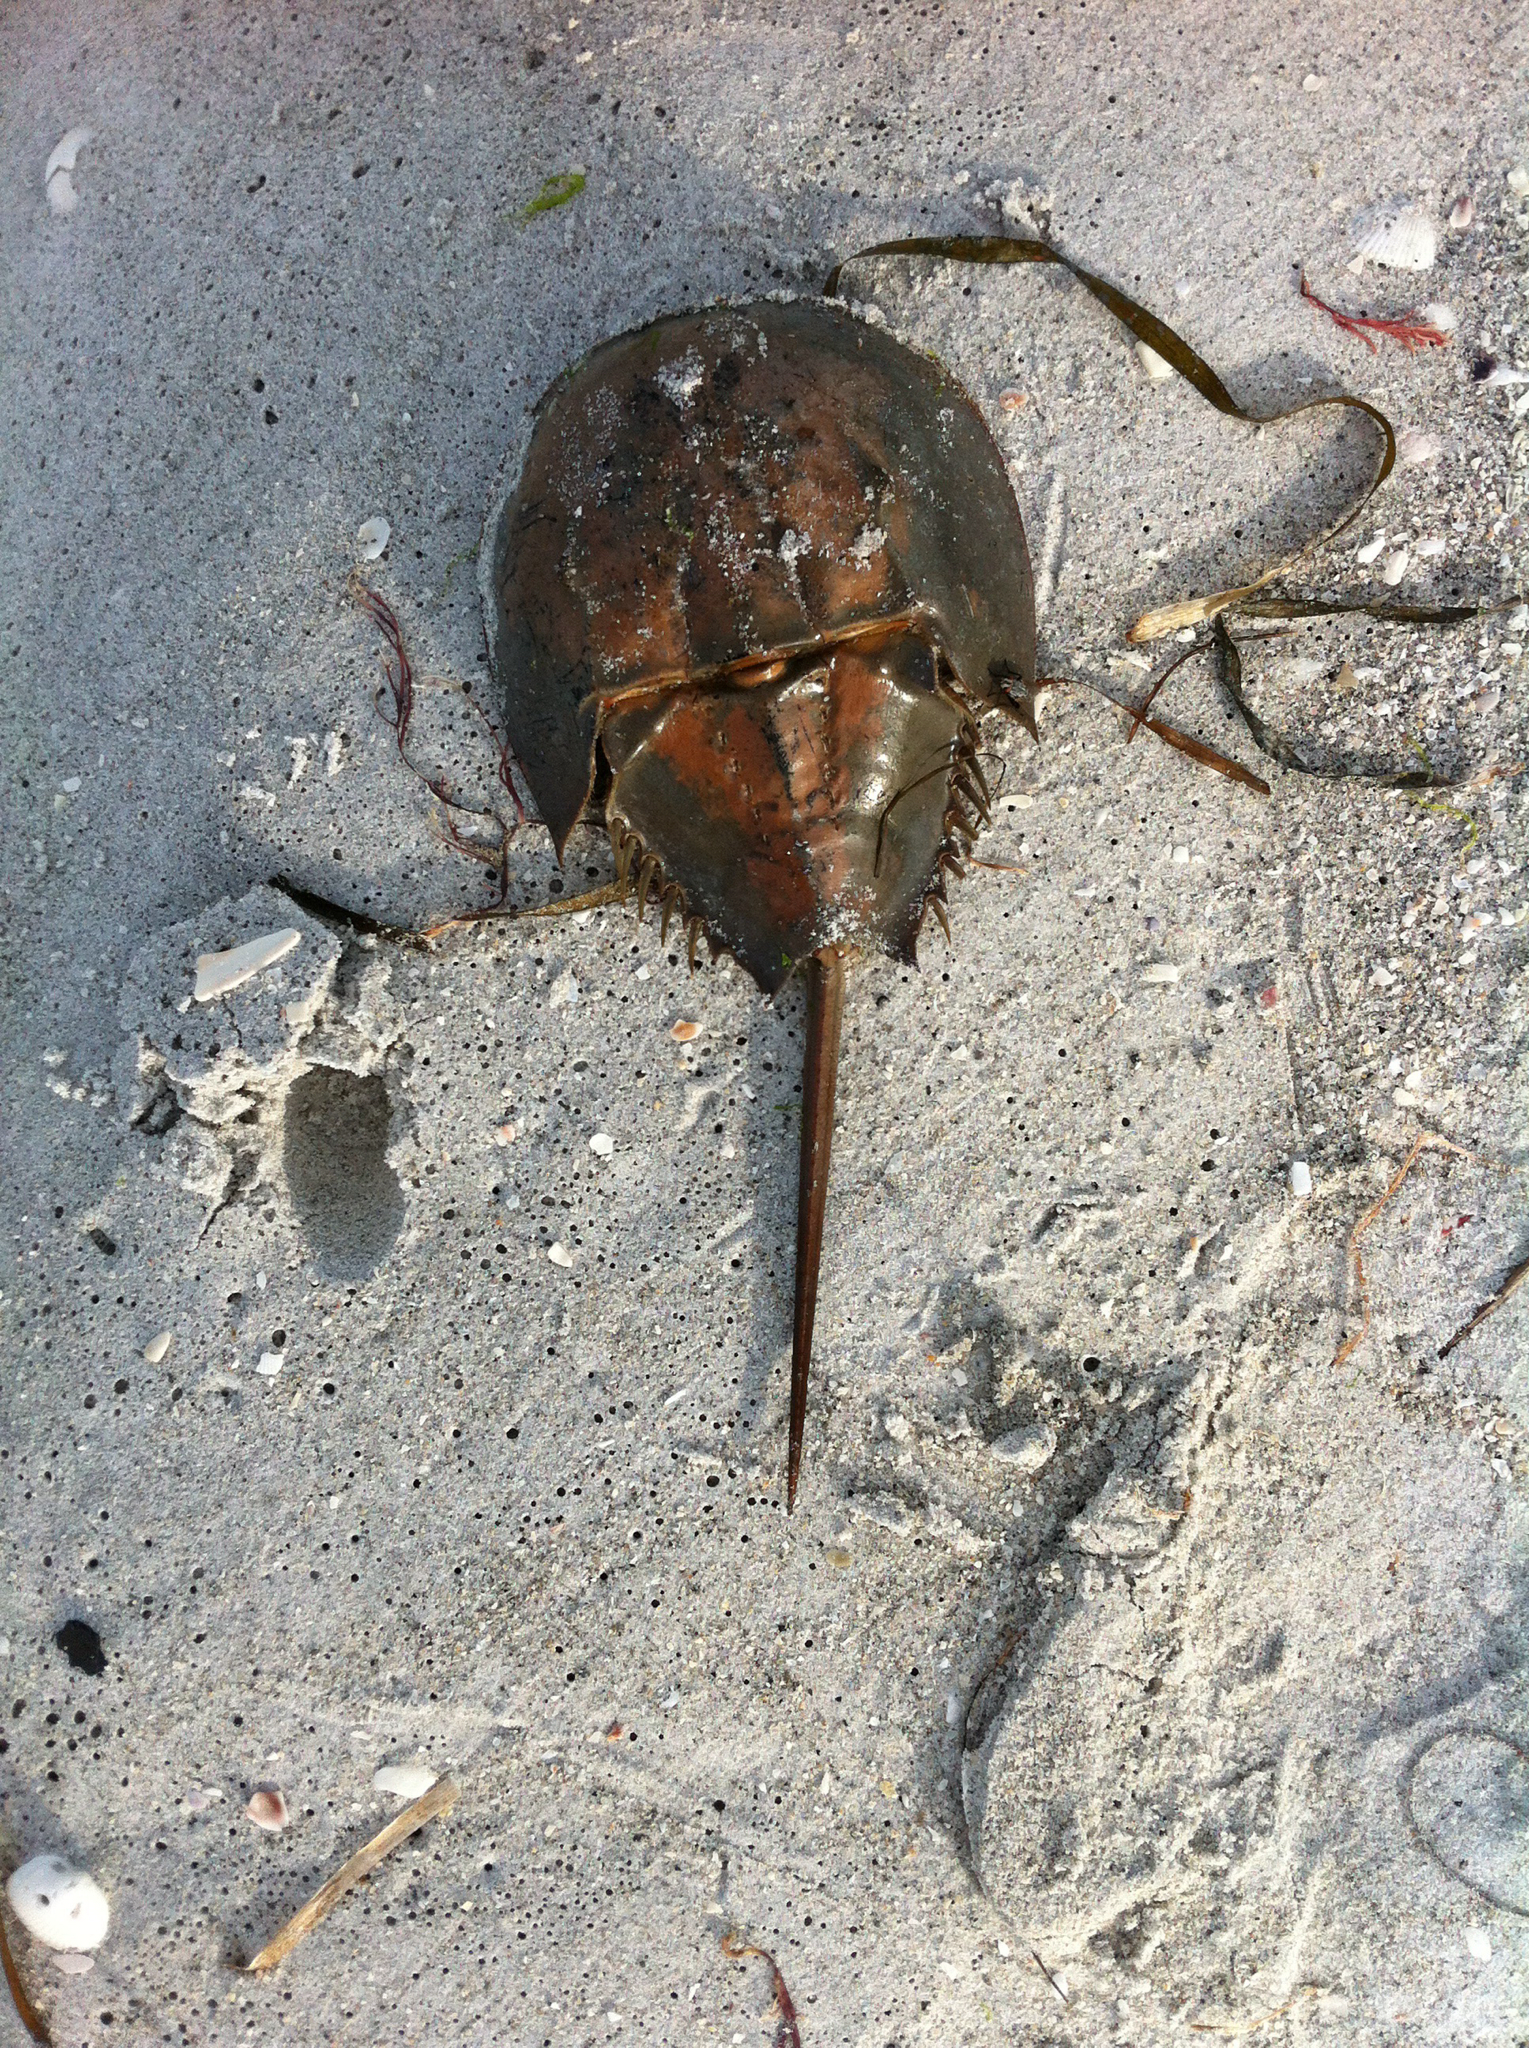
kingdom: Animalia
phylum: Arthropoda
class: Merostomata
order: Xiphosurida
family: Limulidae
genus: Limulus
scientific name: Limulus polyphemus
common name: Horseshoe crab
